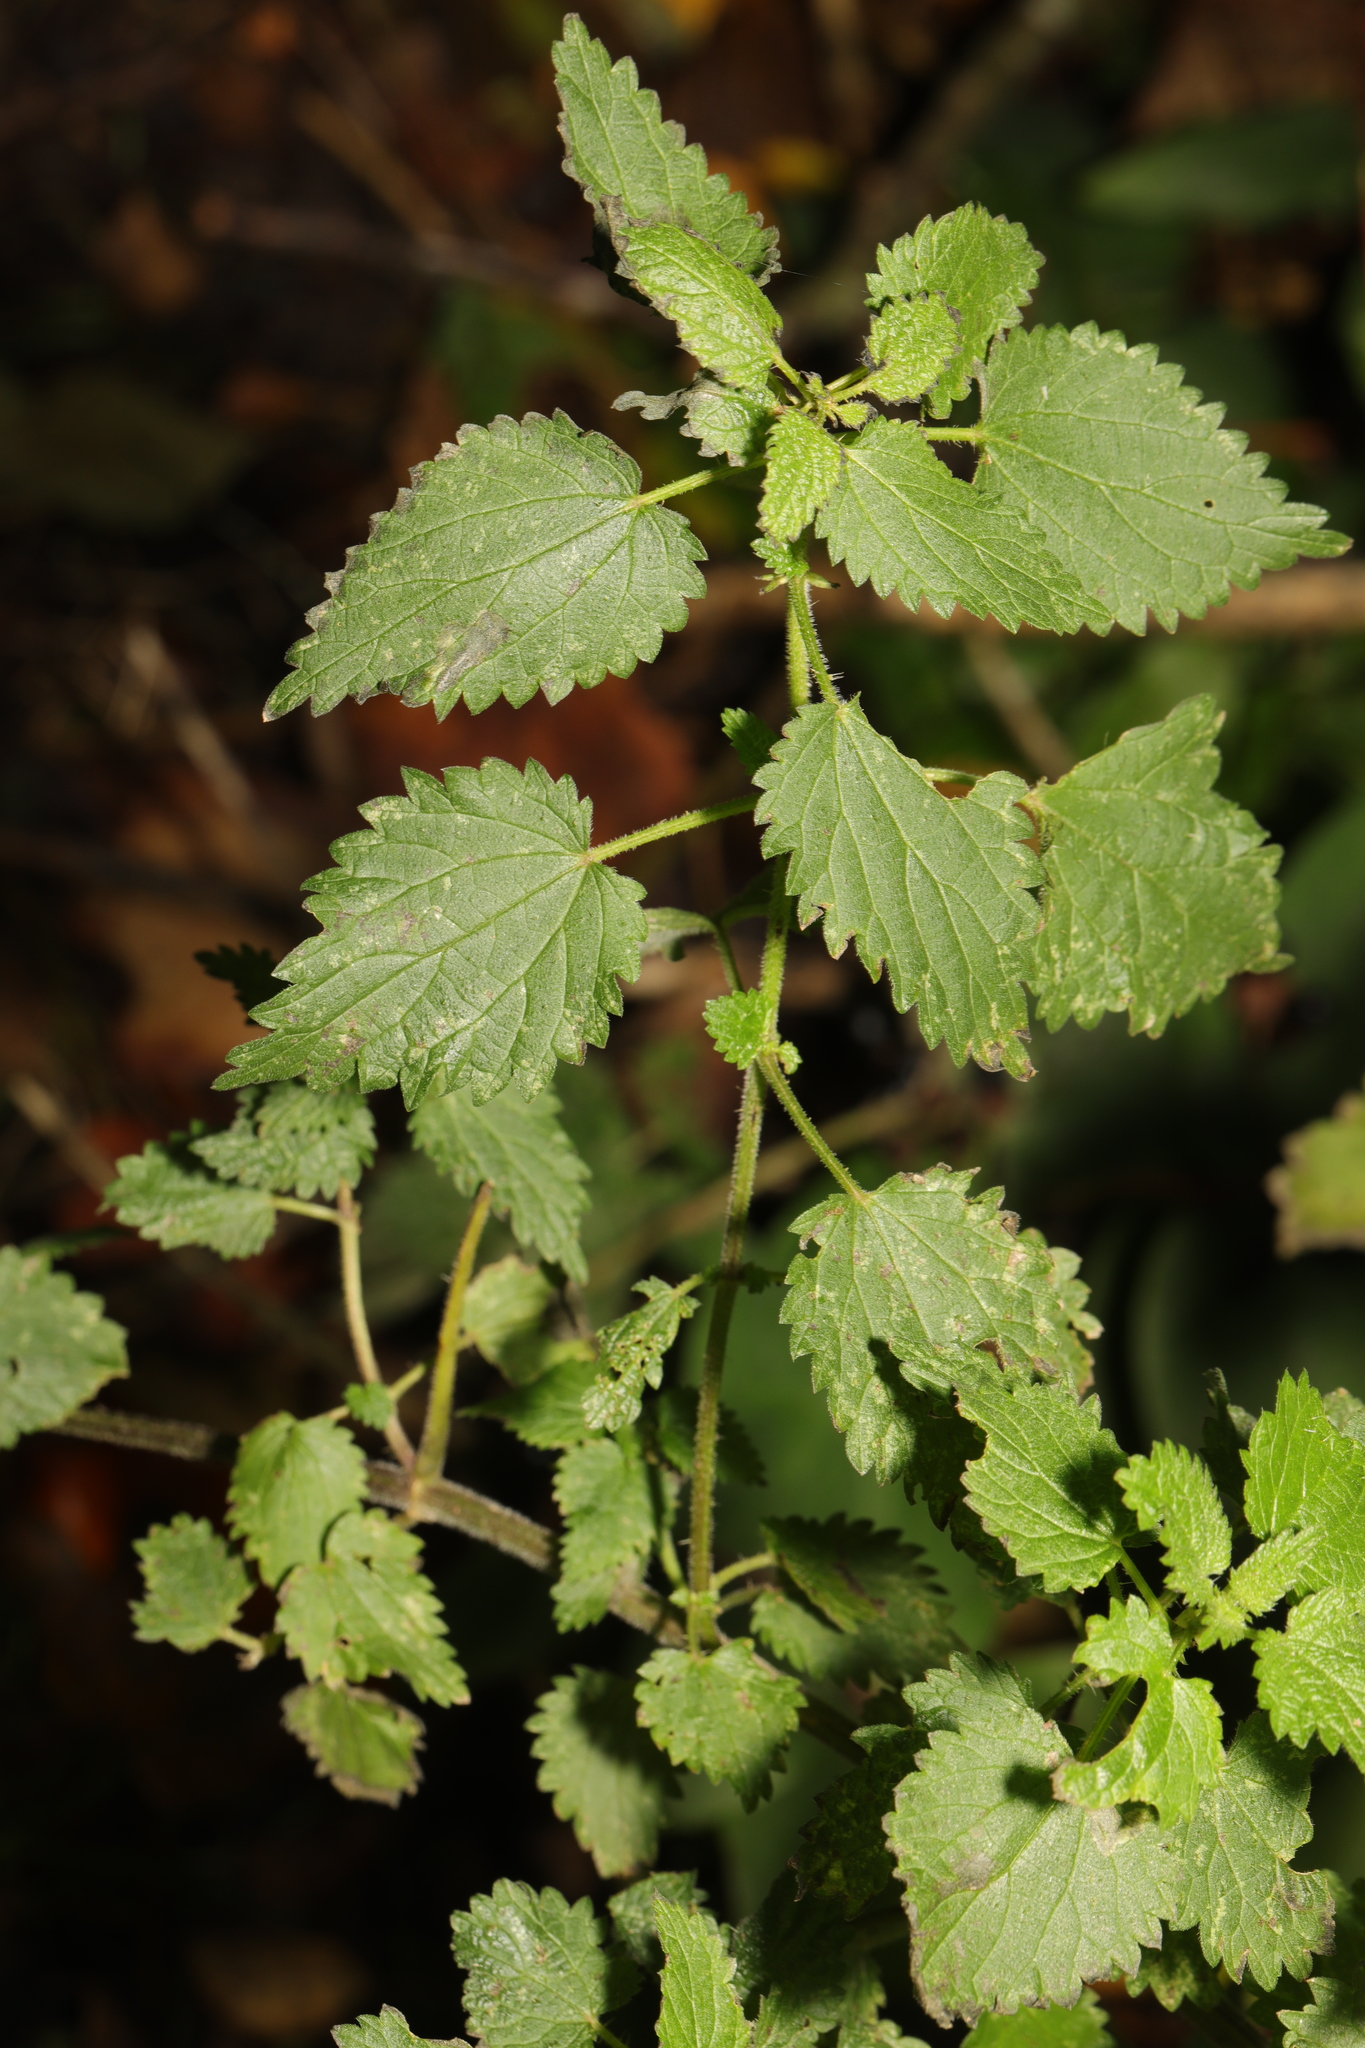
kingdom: Plantae
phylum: Tracheophyta
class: Magnoliopsida
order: Rosales
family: Urticaceae
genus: Urtica
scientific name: Urtica dioica
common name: Common nettle
